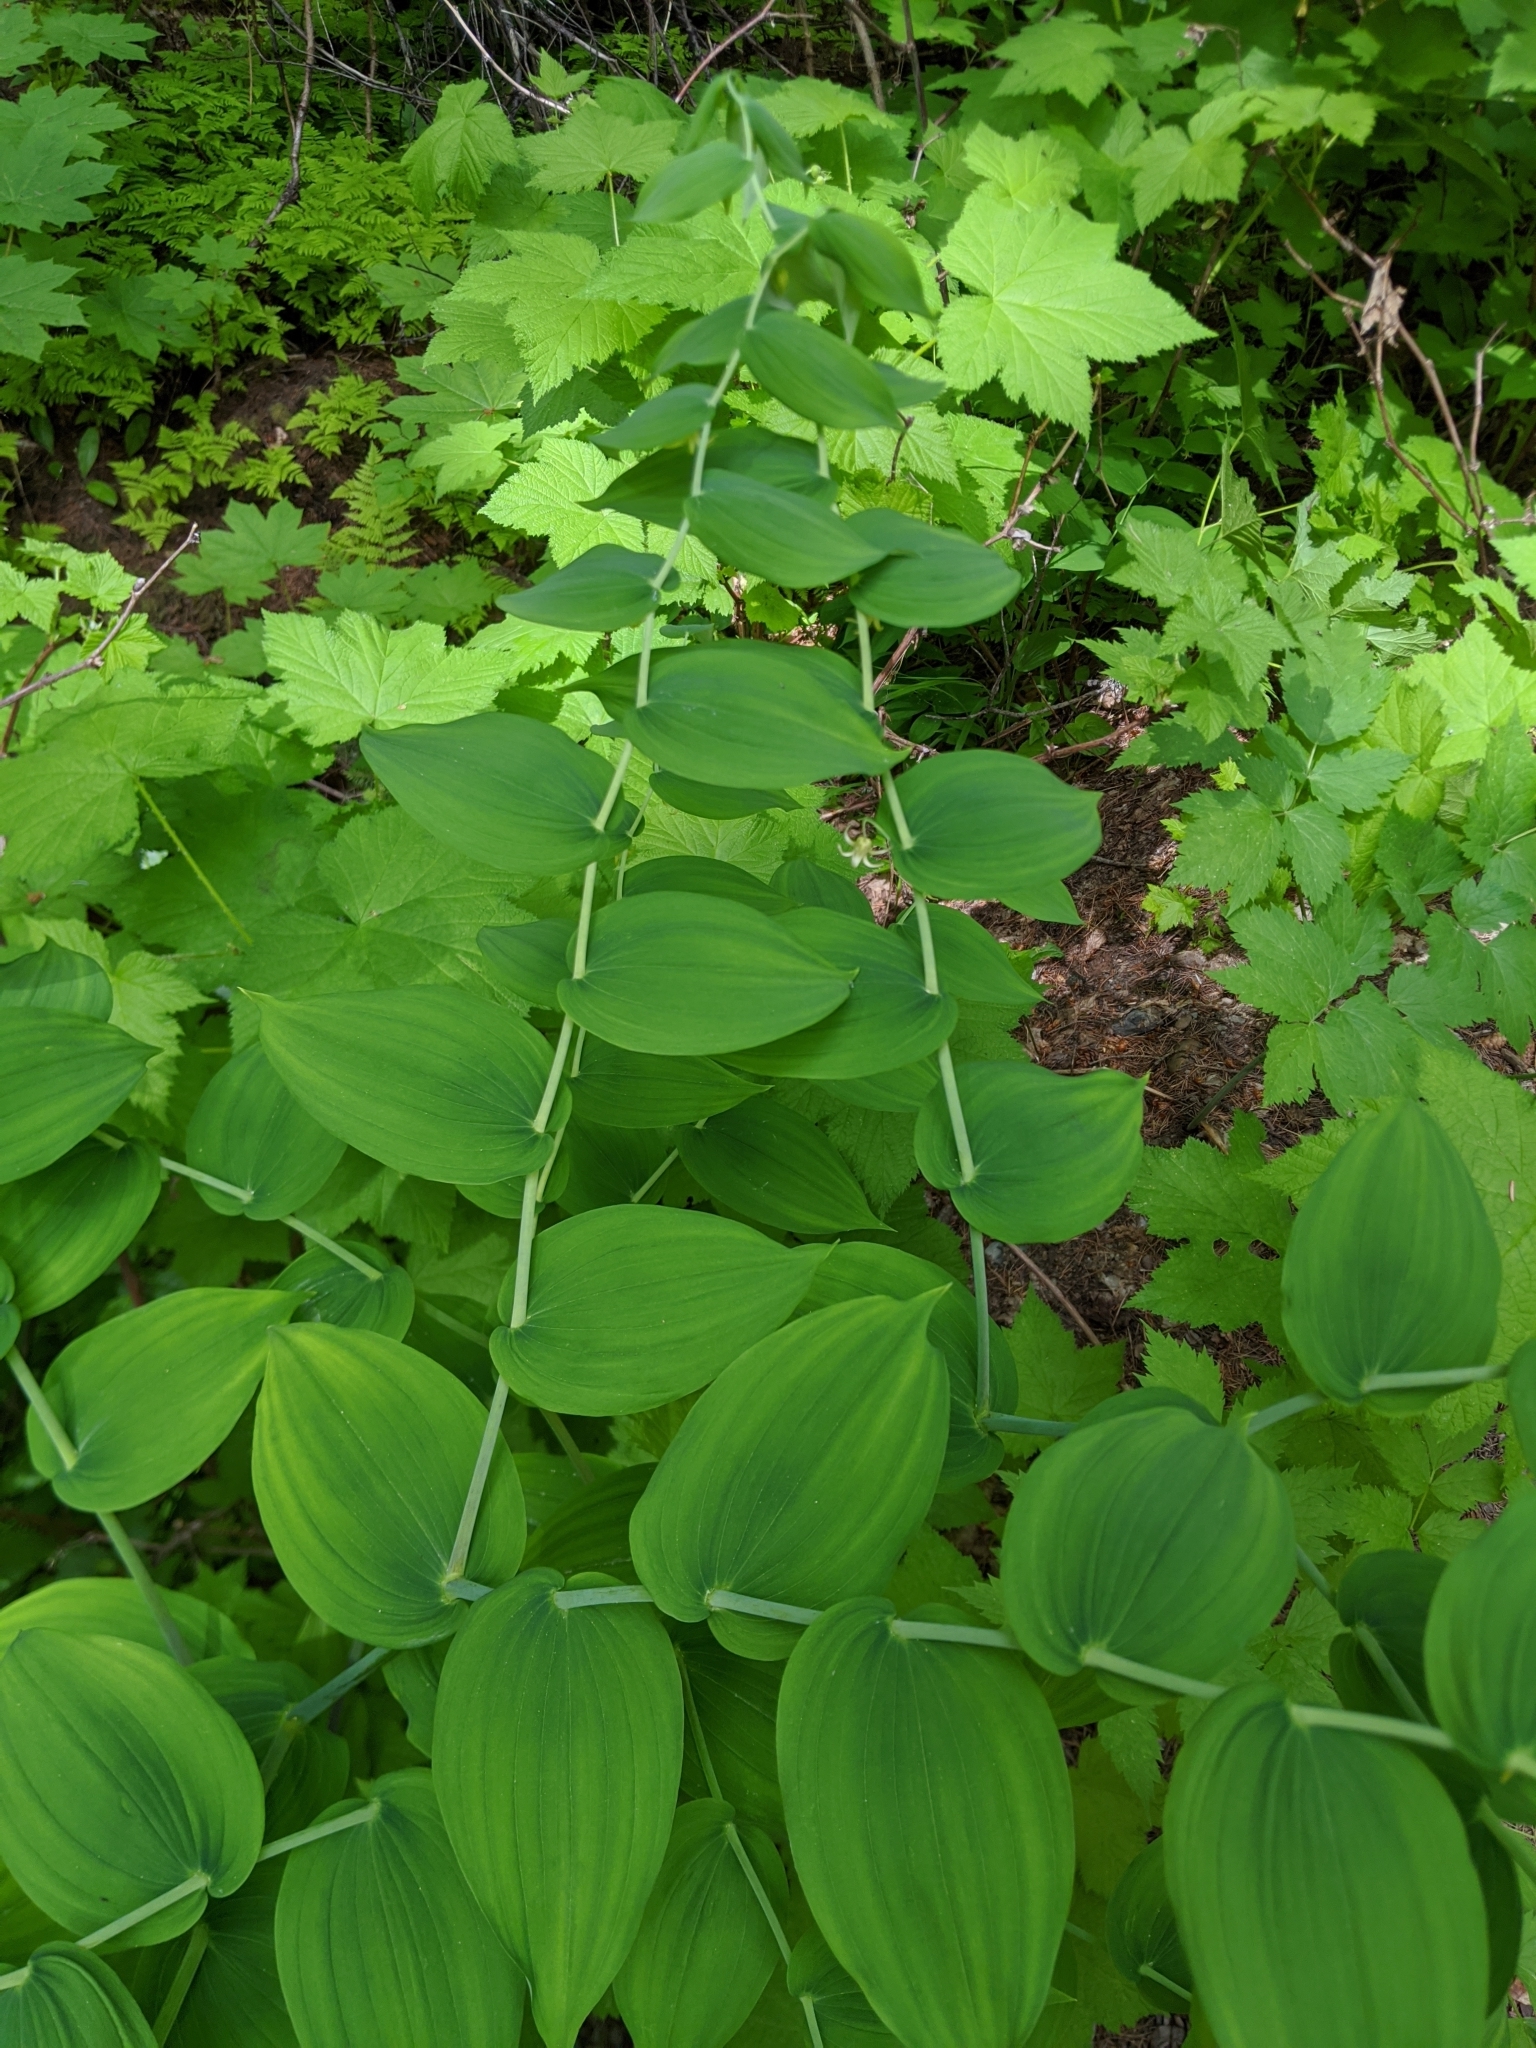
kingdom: Plantae
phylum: Tracheophyta
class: Liliopsida
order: Liliales
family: Liliaceae
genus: Streptopus
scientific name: Streptopus amplexifolius
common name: Clasp twisted stalk
